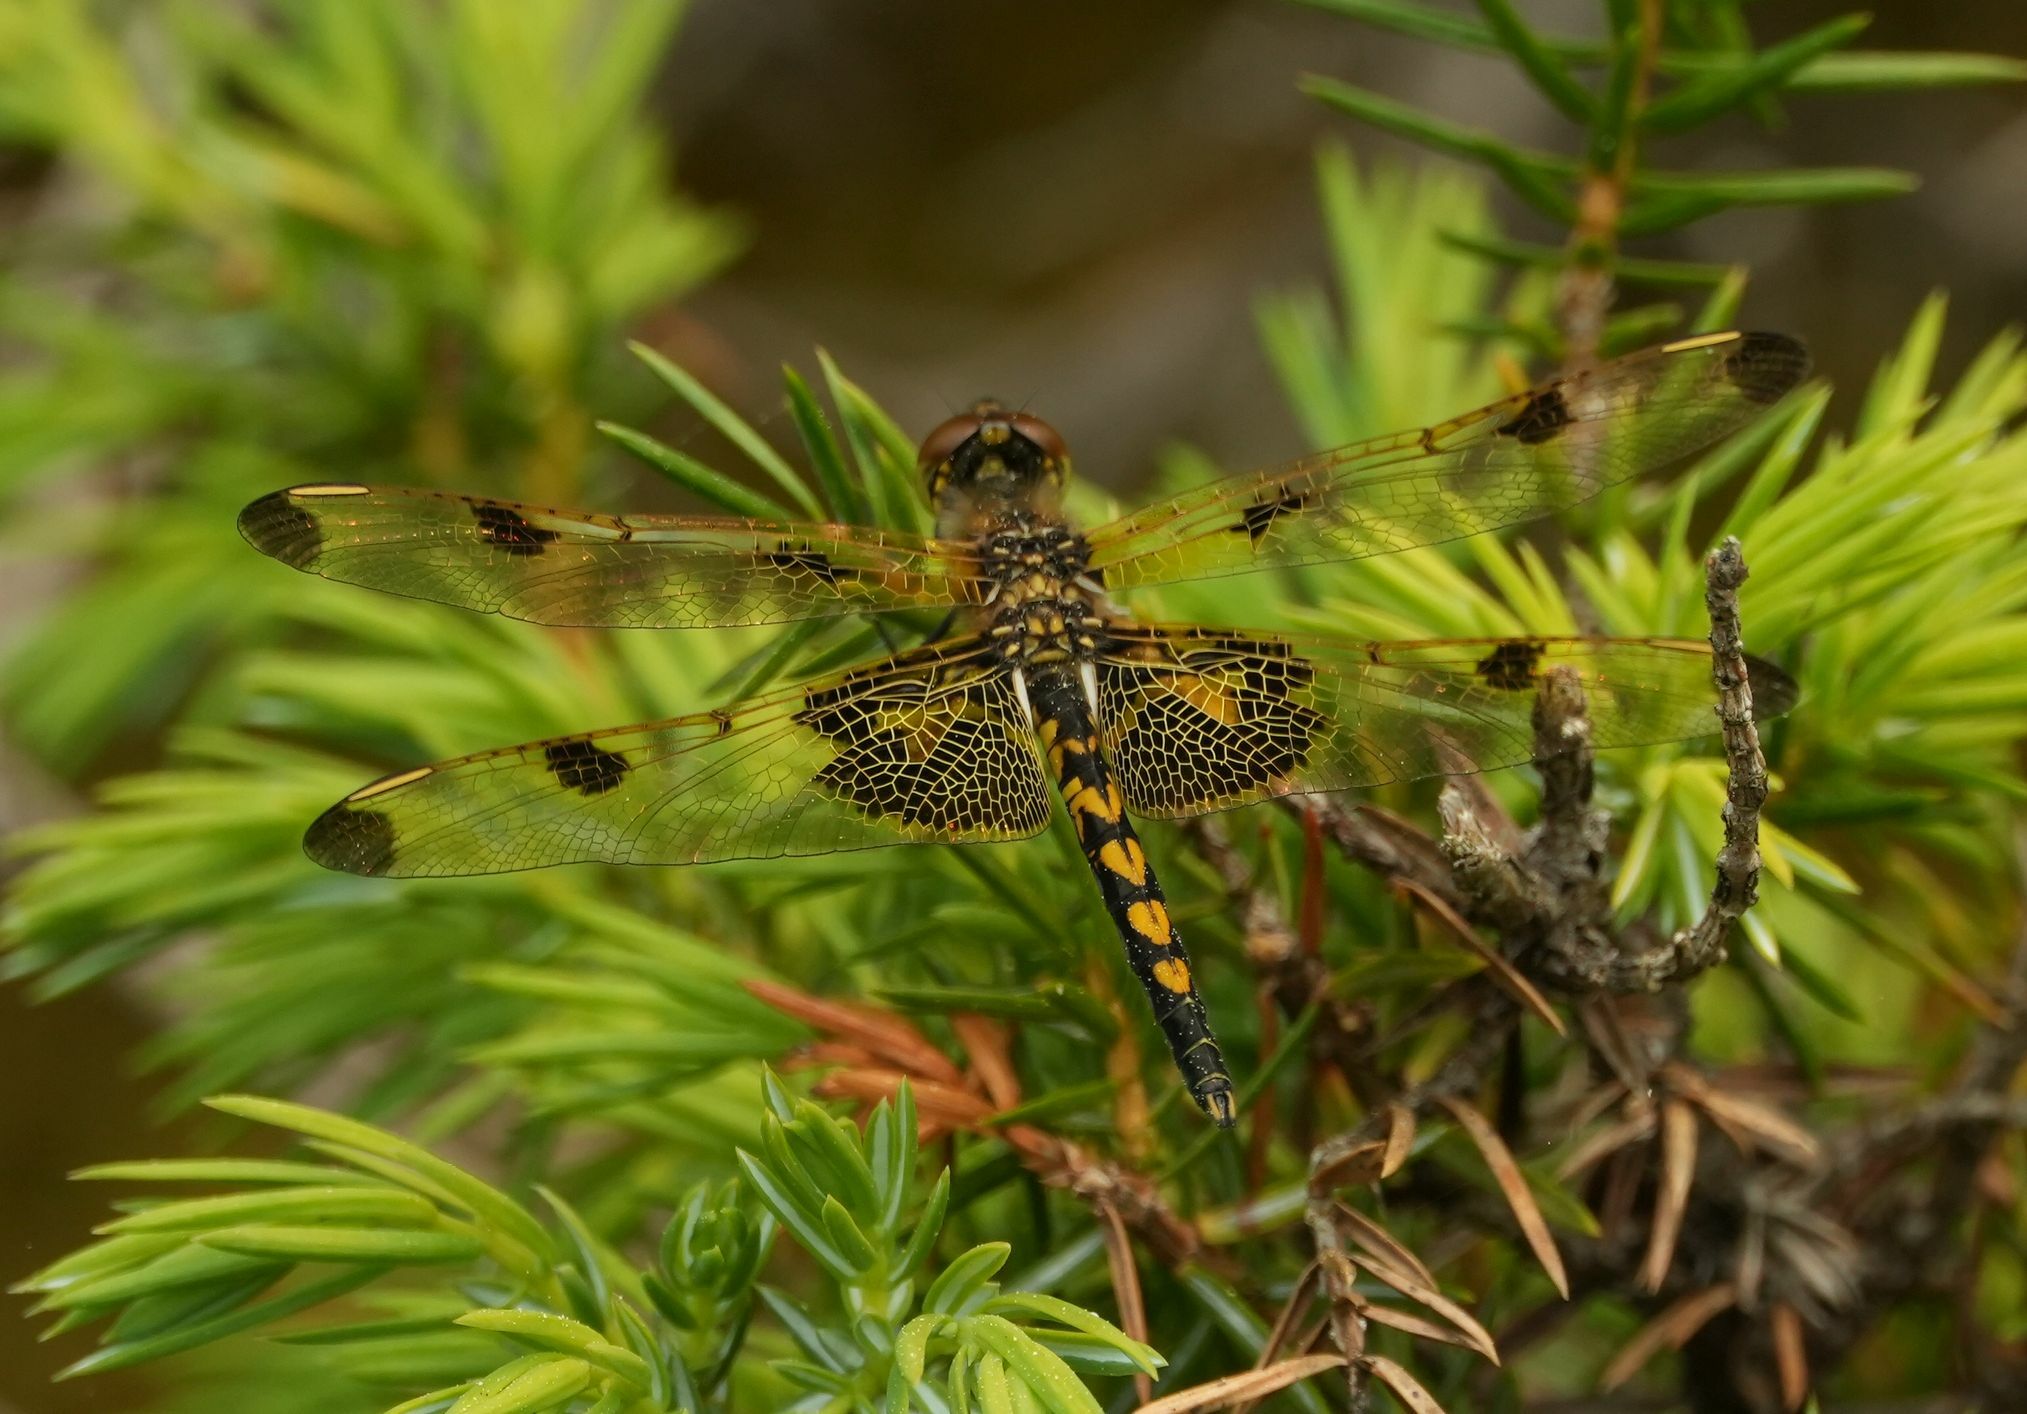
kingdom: Animalia
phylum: Arthropoda
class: Insecta
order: Odonata
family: Libellulidae
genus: Celithemis
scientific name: Celithemis elisa
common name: Calico pennant
